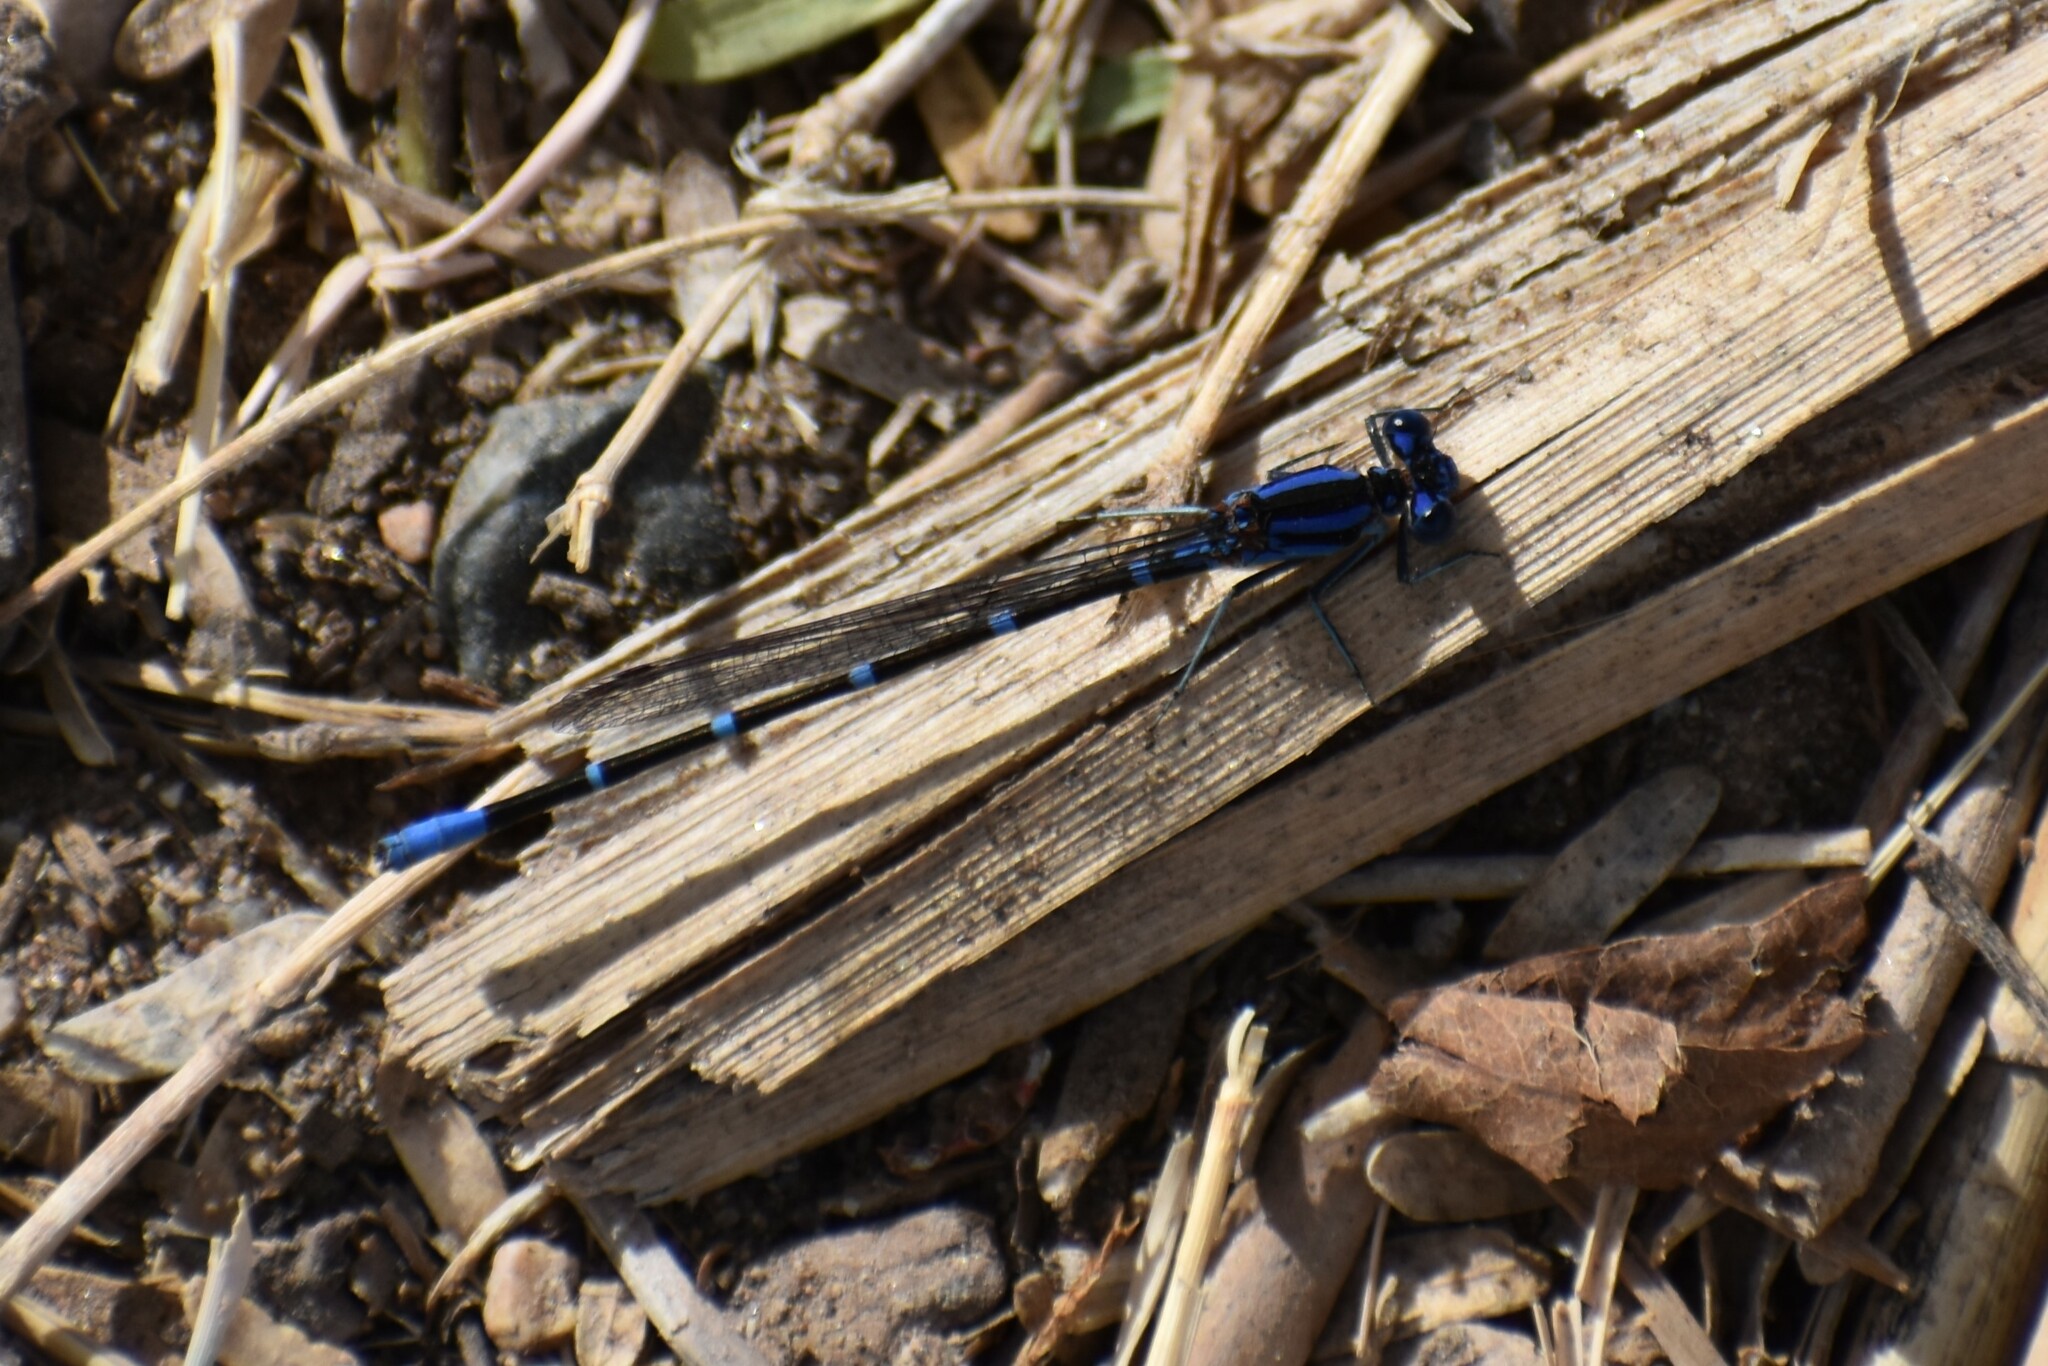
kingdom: Animalia
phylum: Arthropoda
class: Insecta
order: Odonata
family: Coenagrionidae
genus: Argia
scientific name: Argia sedula
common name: Blue-ringed dancer
